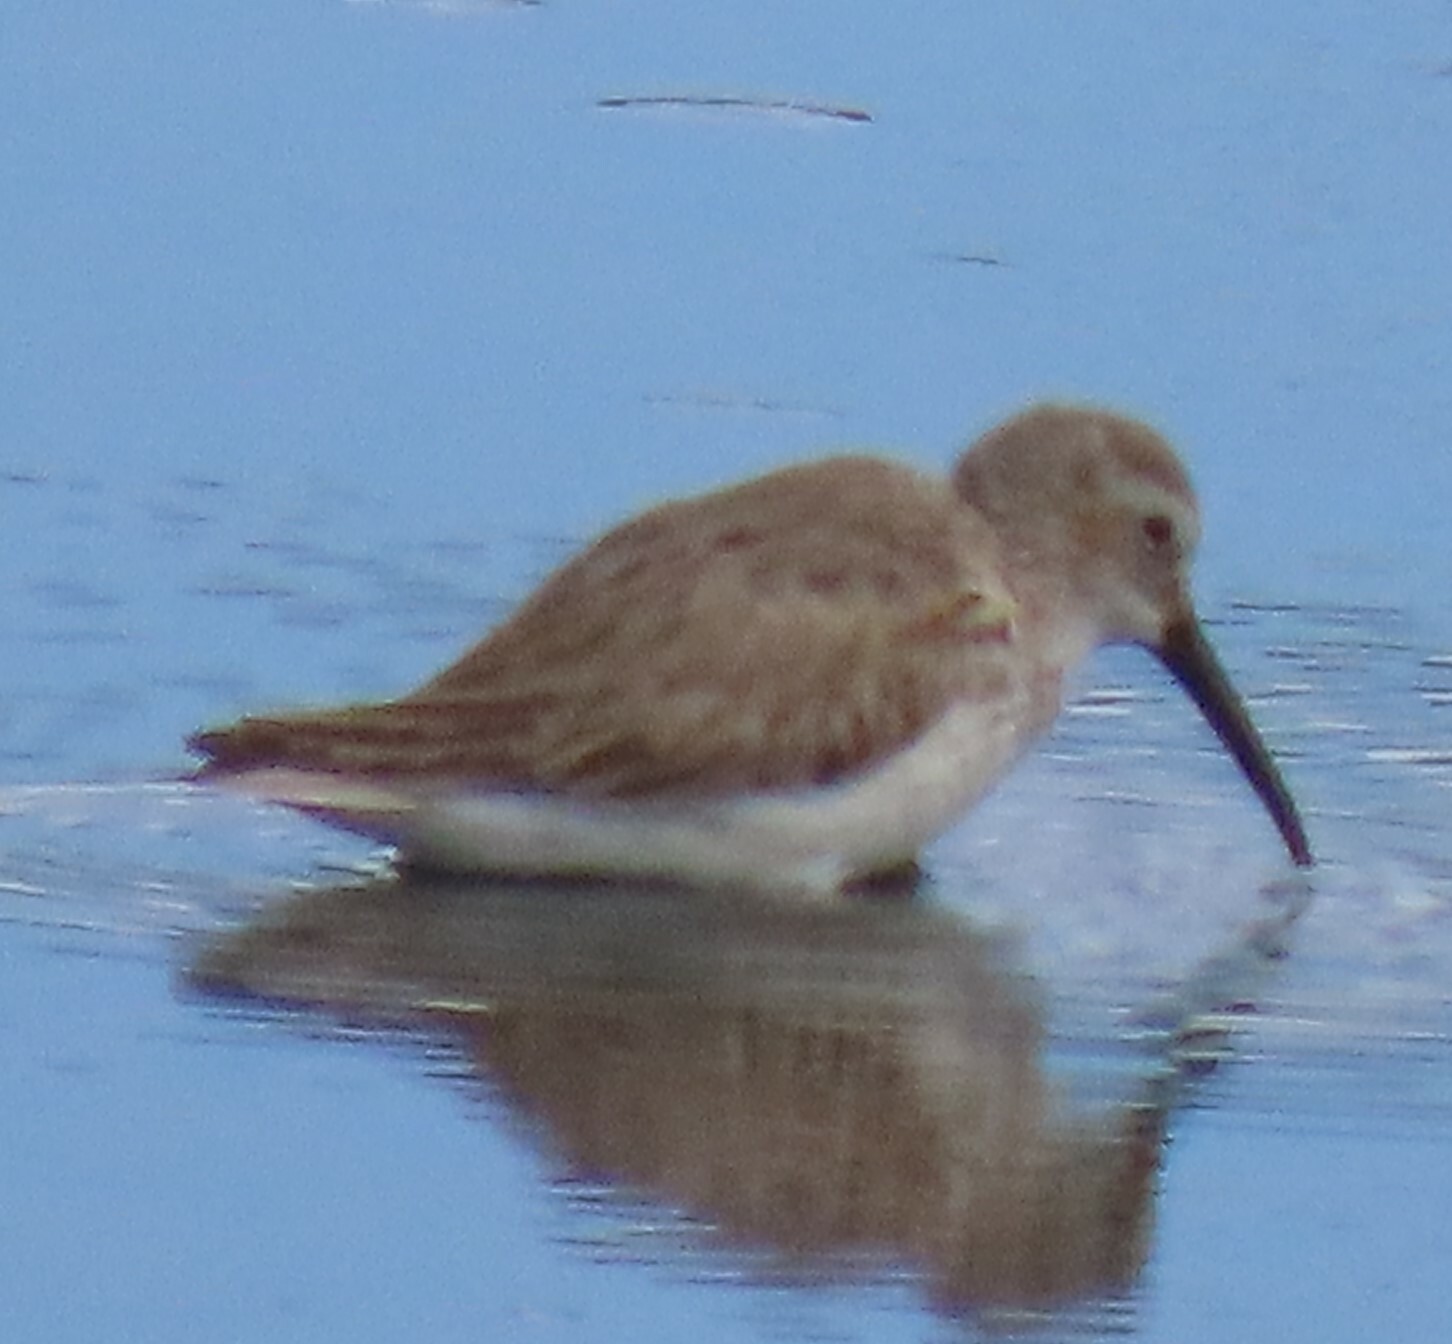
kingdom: Animalia
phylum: Chordata
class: Aves
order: Charadriiformes
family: Scolopacidae
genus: Calidris
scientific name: Calidris alpina
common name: Dunlin
